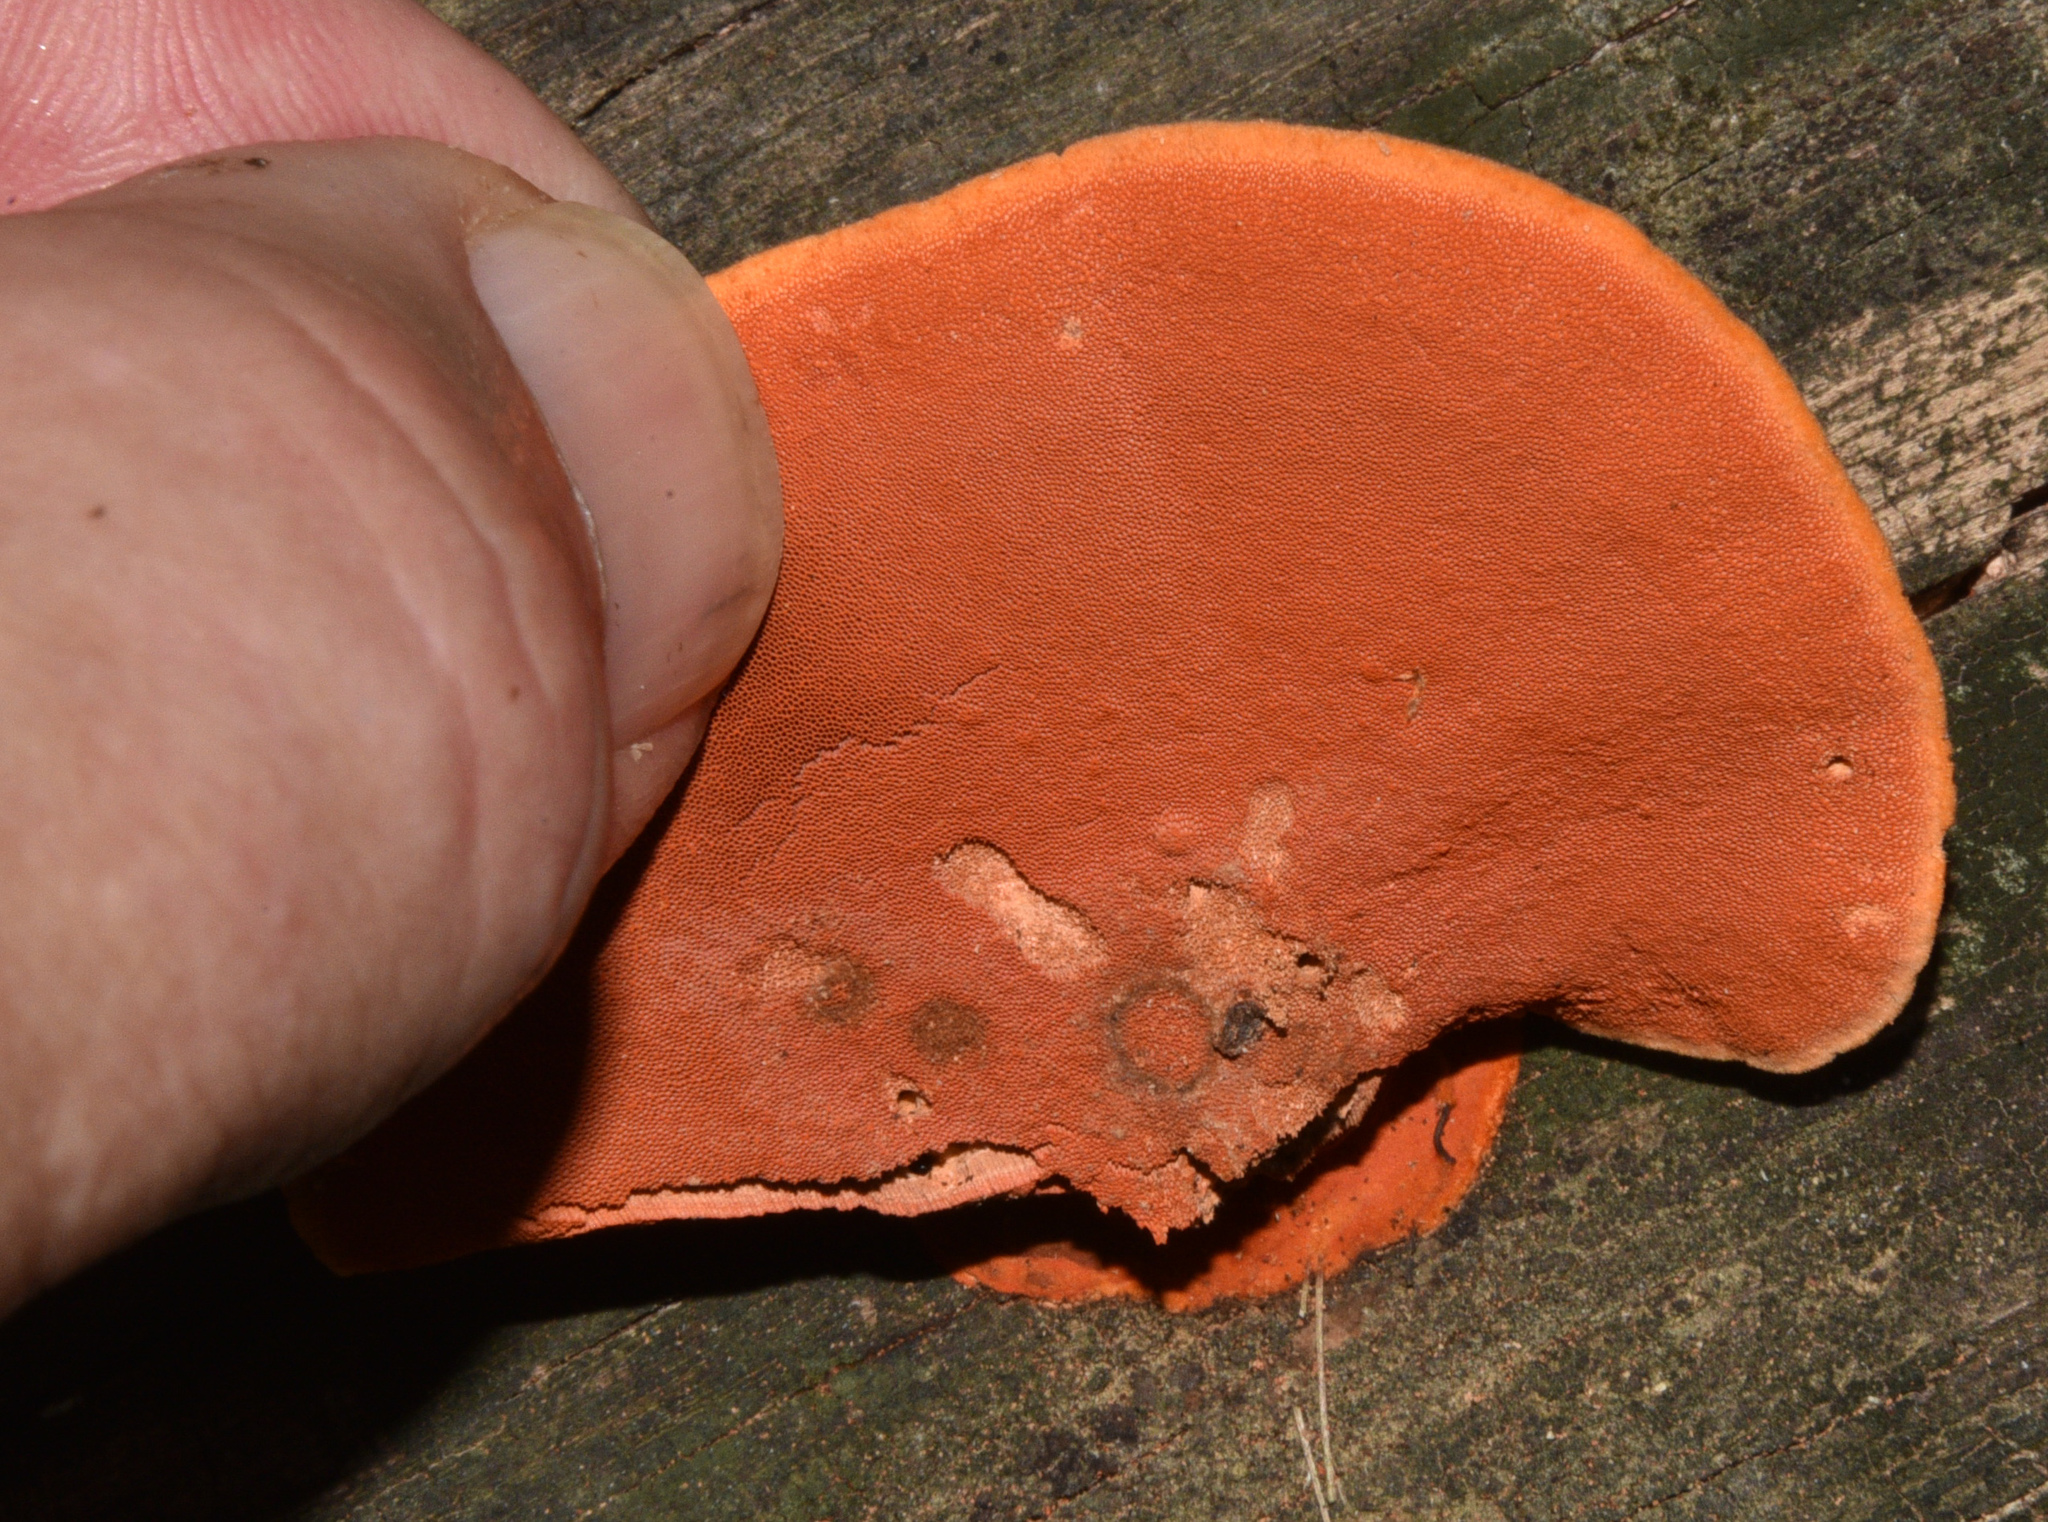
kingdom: Fungi
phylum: Basidiomycota
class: Agaricomycetes
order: Polyporales
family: Polyporaceae
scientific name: Polyporaceae
